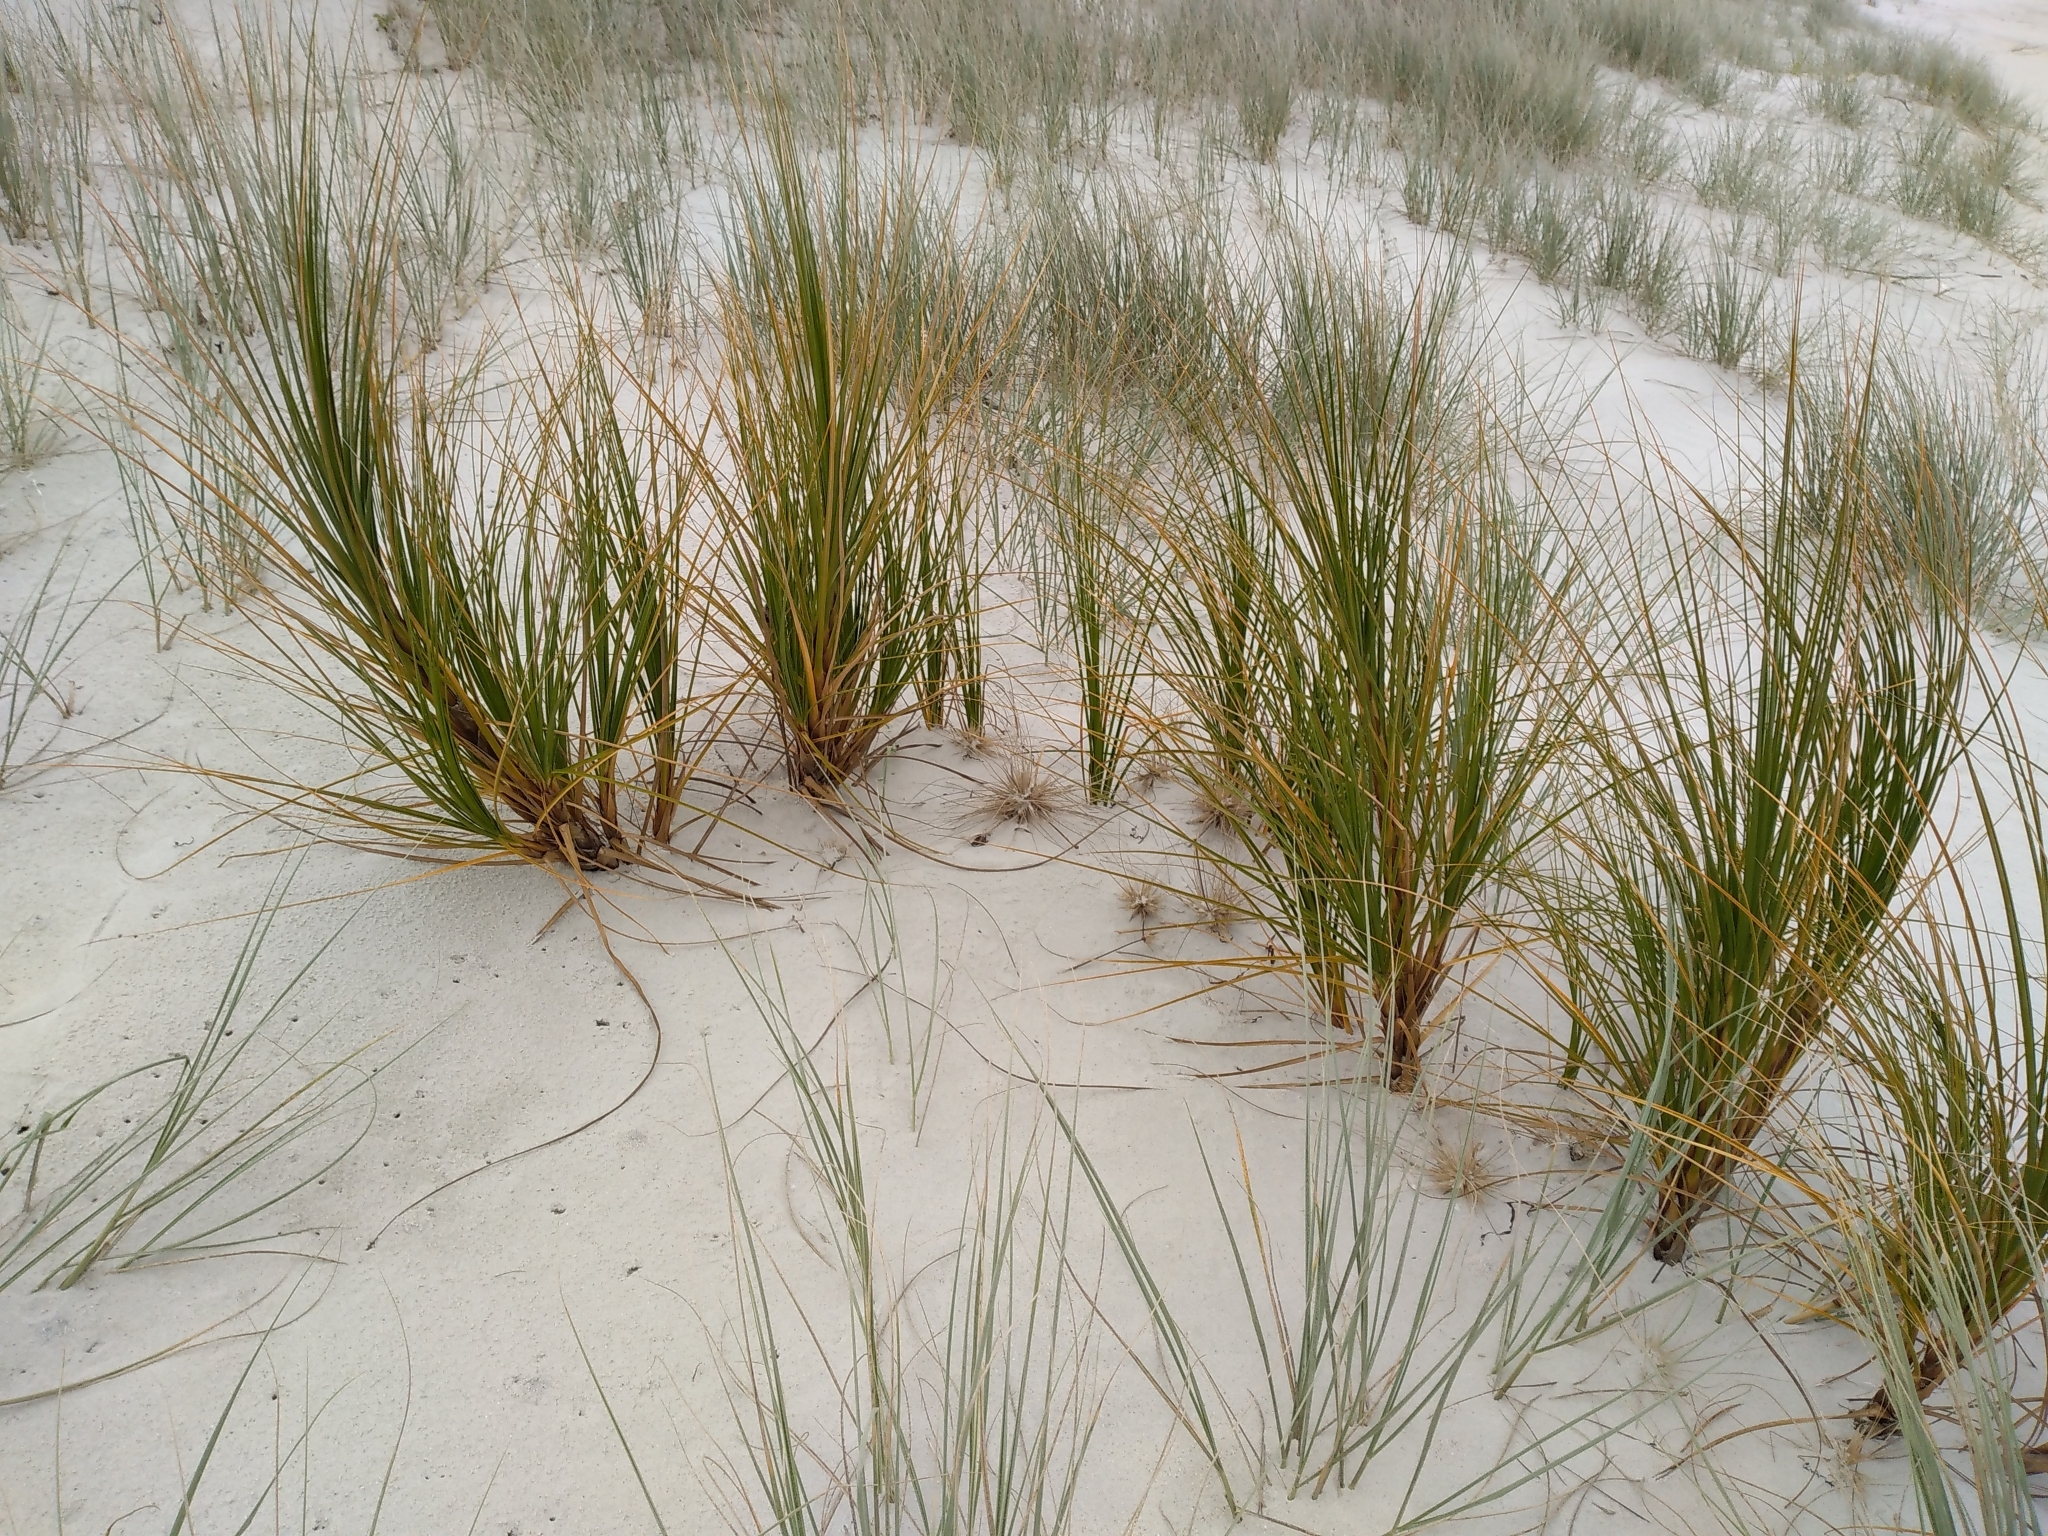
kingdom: Plantae
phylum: Tracheophyta
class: Liliopsida
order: Poales
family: Cyperaceae
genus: Ficinia
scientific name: Ficinia spiralis
